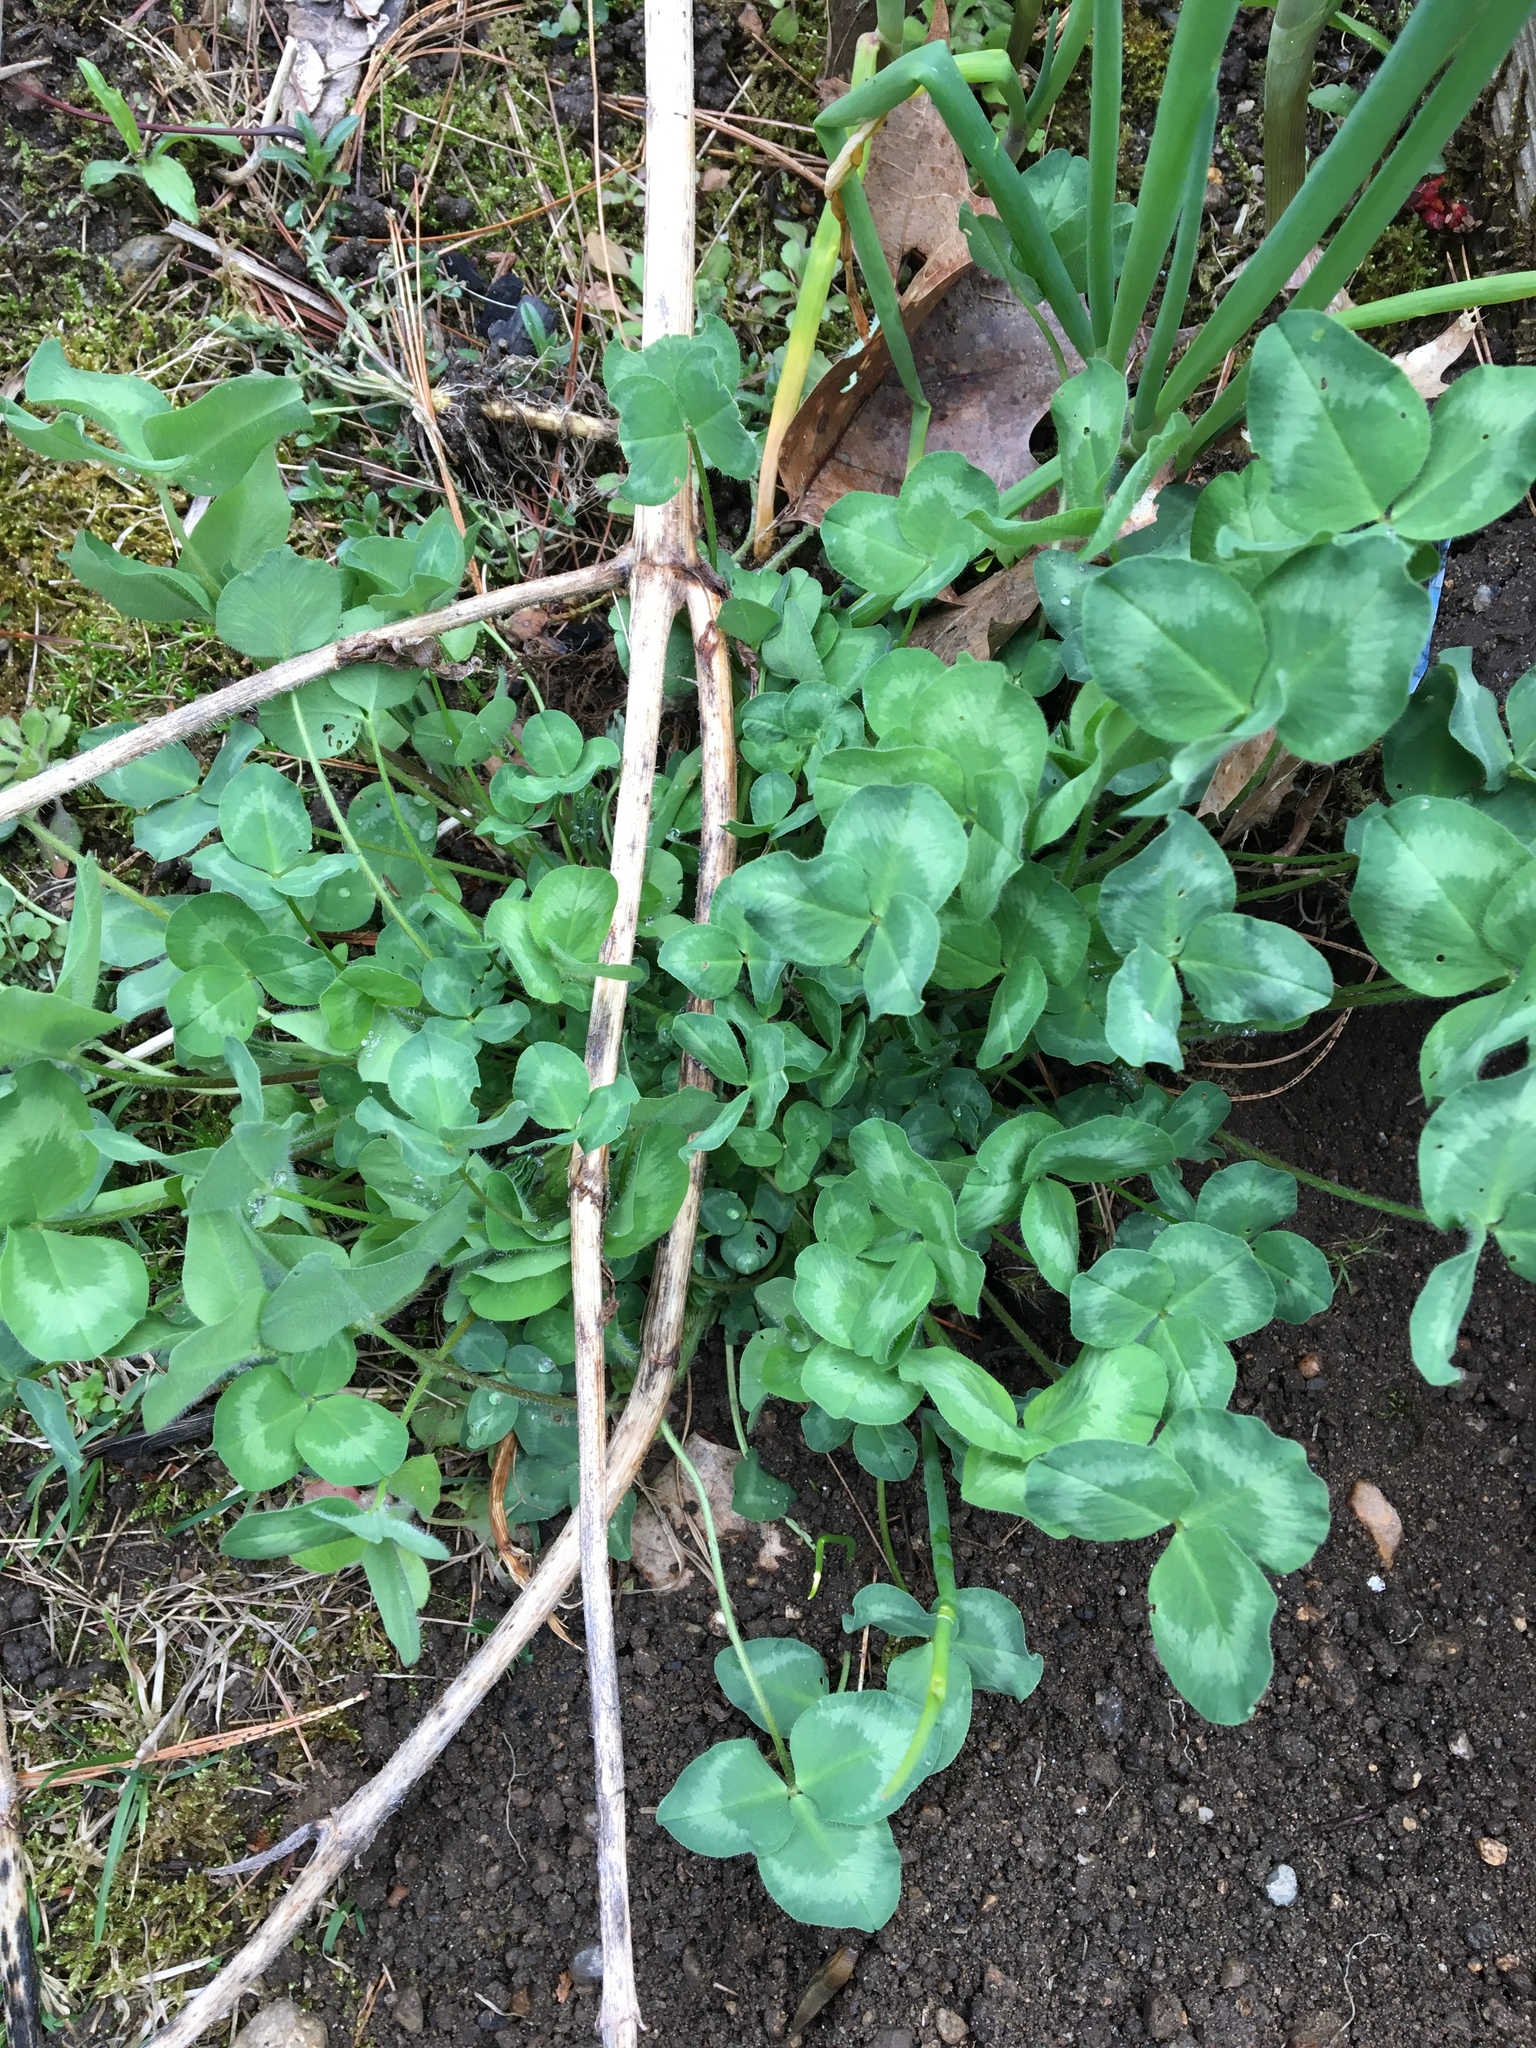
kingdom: Plantae
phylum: Tracheophyta
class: Magnoliopsida
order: Fabales
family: Fabaceae
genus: Trifolium
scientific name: Trifolium pratense
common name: Red clover
